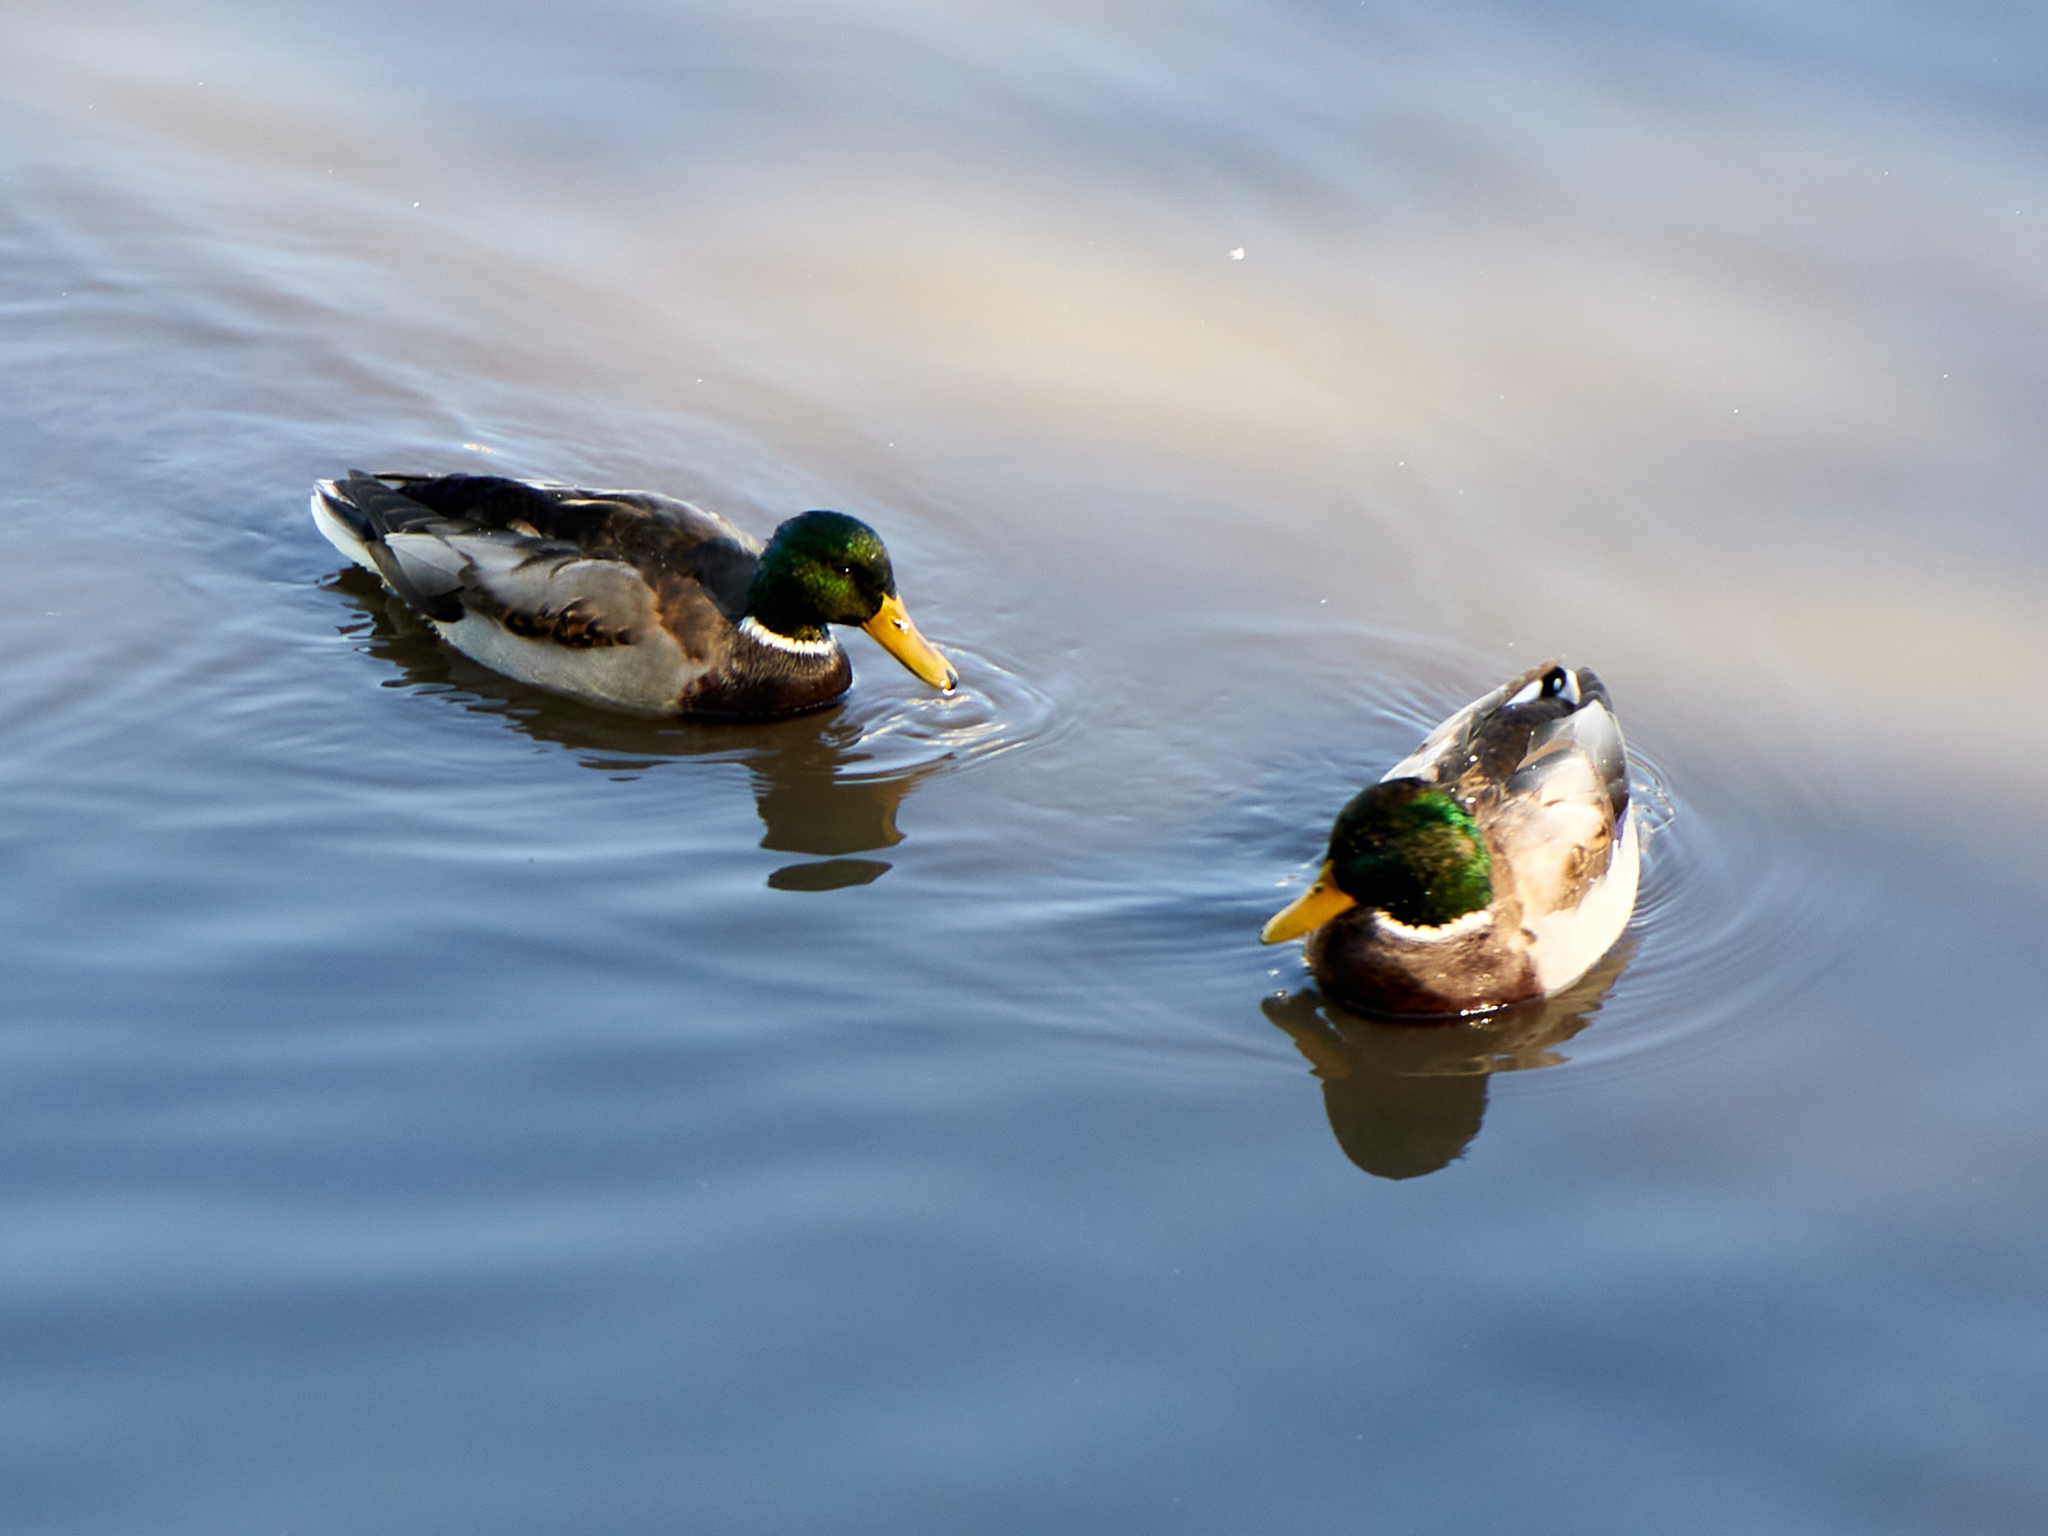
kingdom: Animalia
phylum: Chordata
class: Aves
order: Anseriformes
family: Anatidae
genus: Anas
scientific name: Anas platyrhynchos
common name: Mallard
